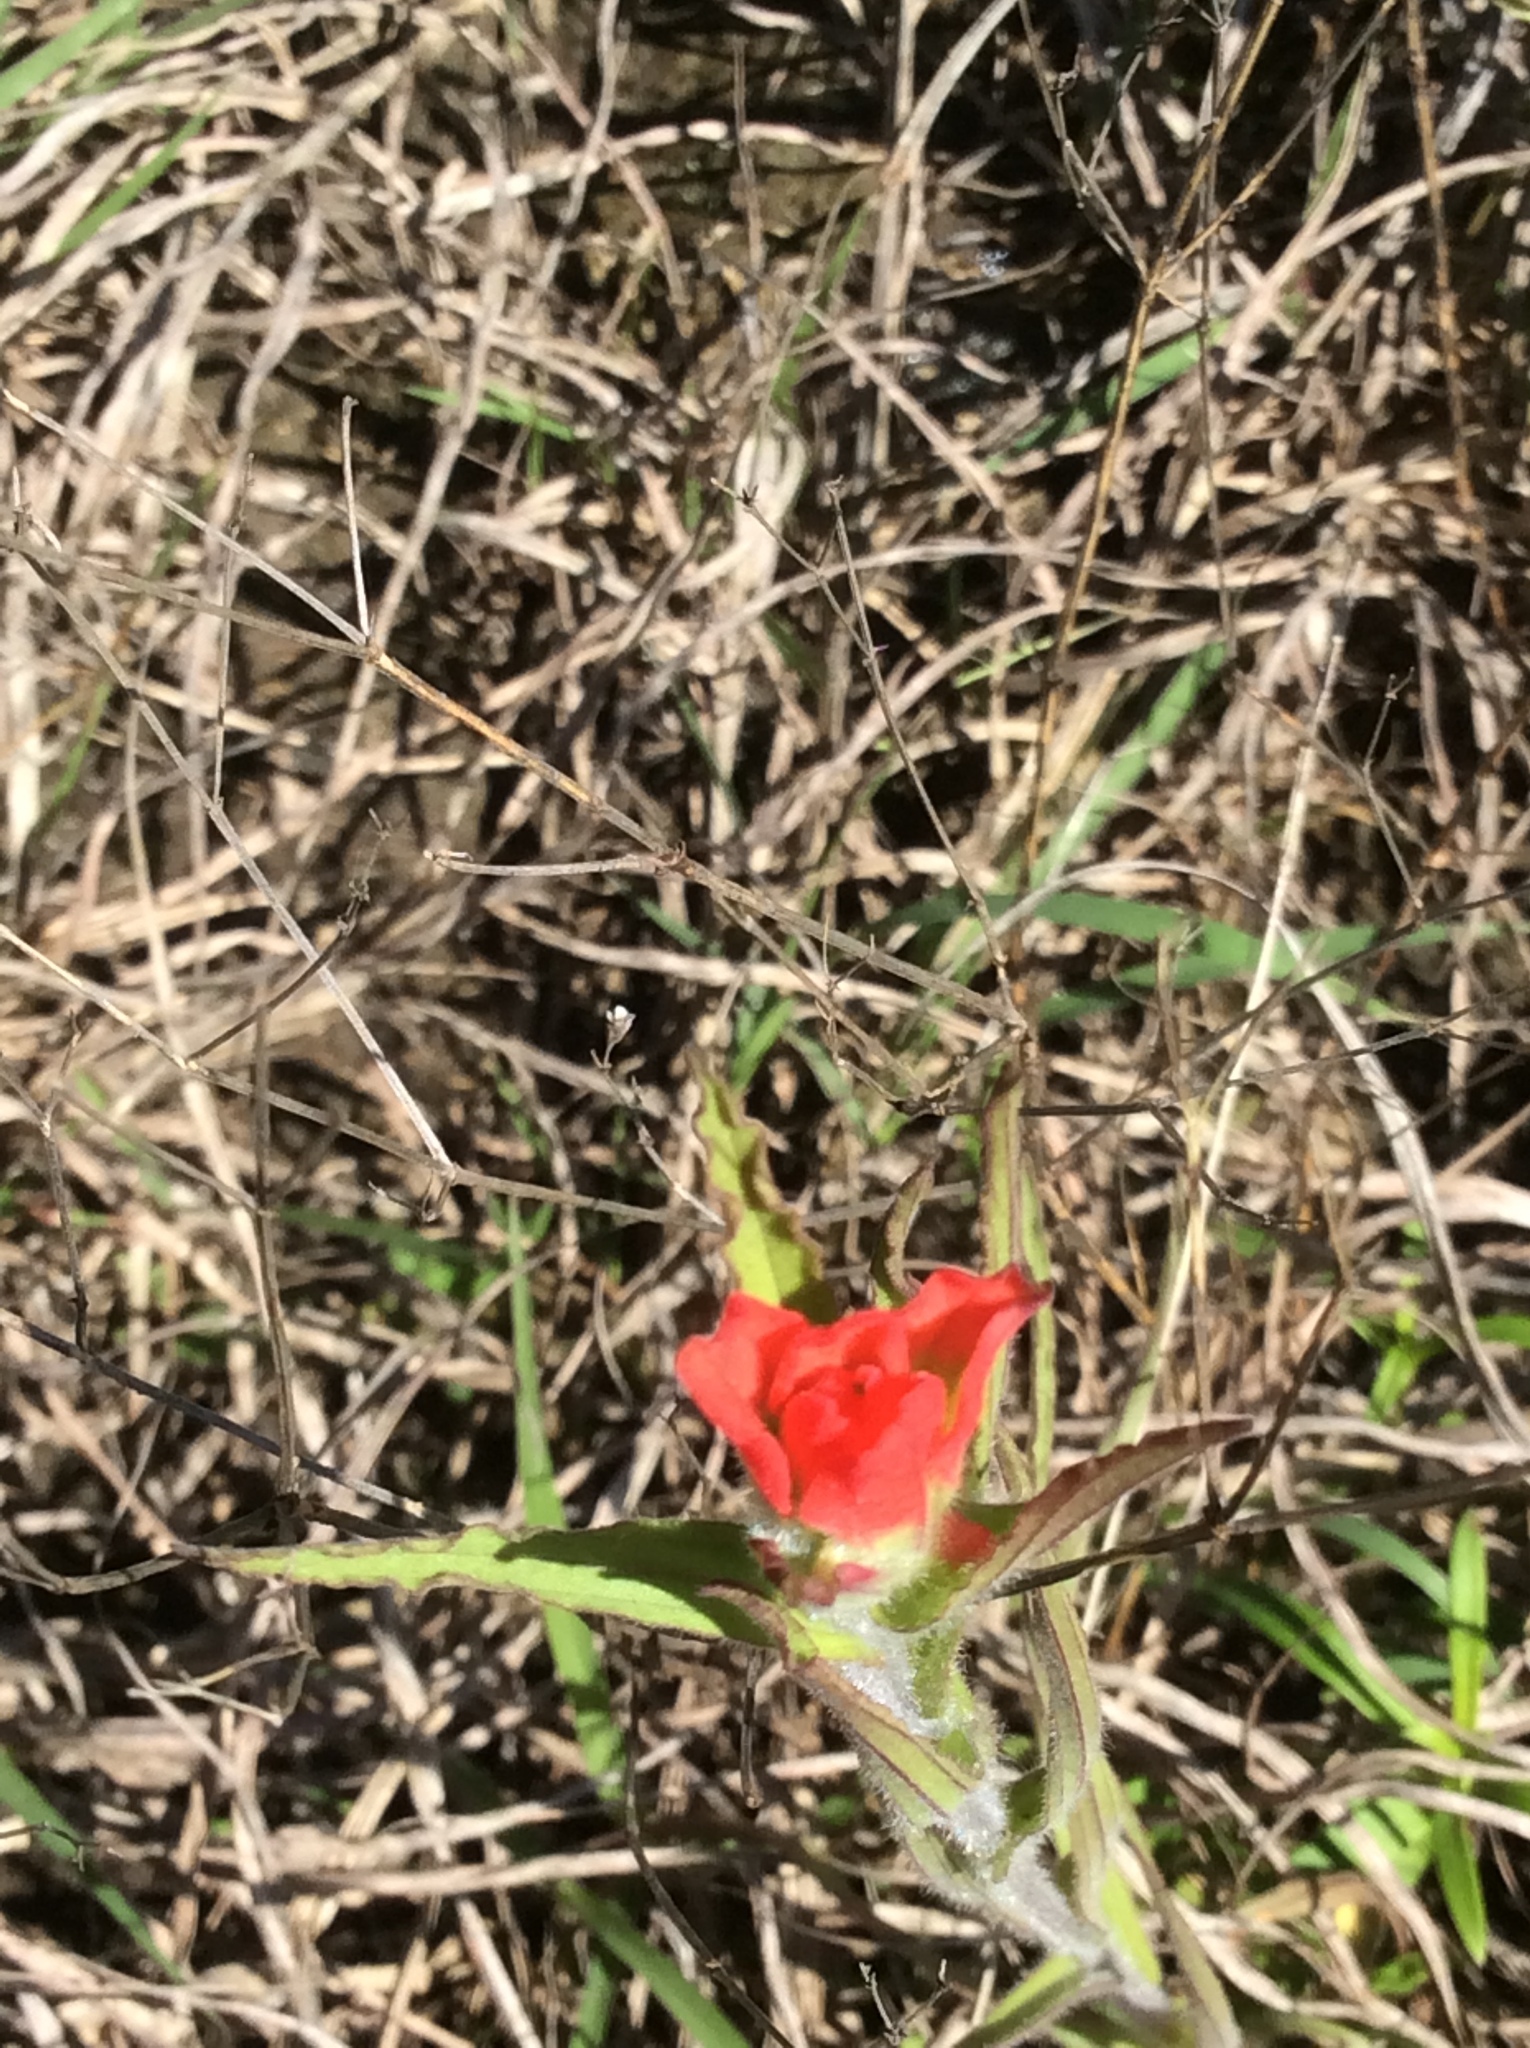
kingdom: Plantae
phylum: Tracheophyta
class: Magnoliopsida
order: Lamiales
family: Orobanchaceae
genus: Castilleja
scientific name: Castilleja indivisa
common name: Texas paintbrush
